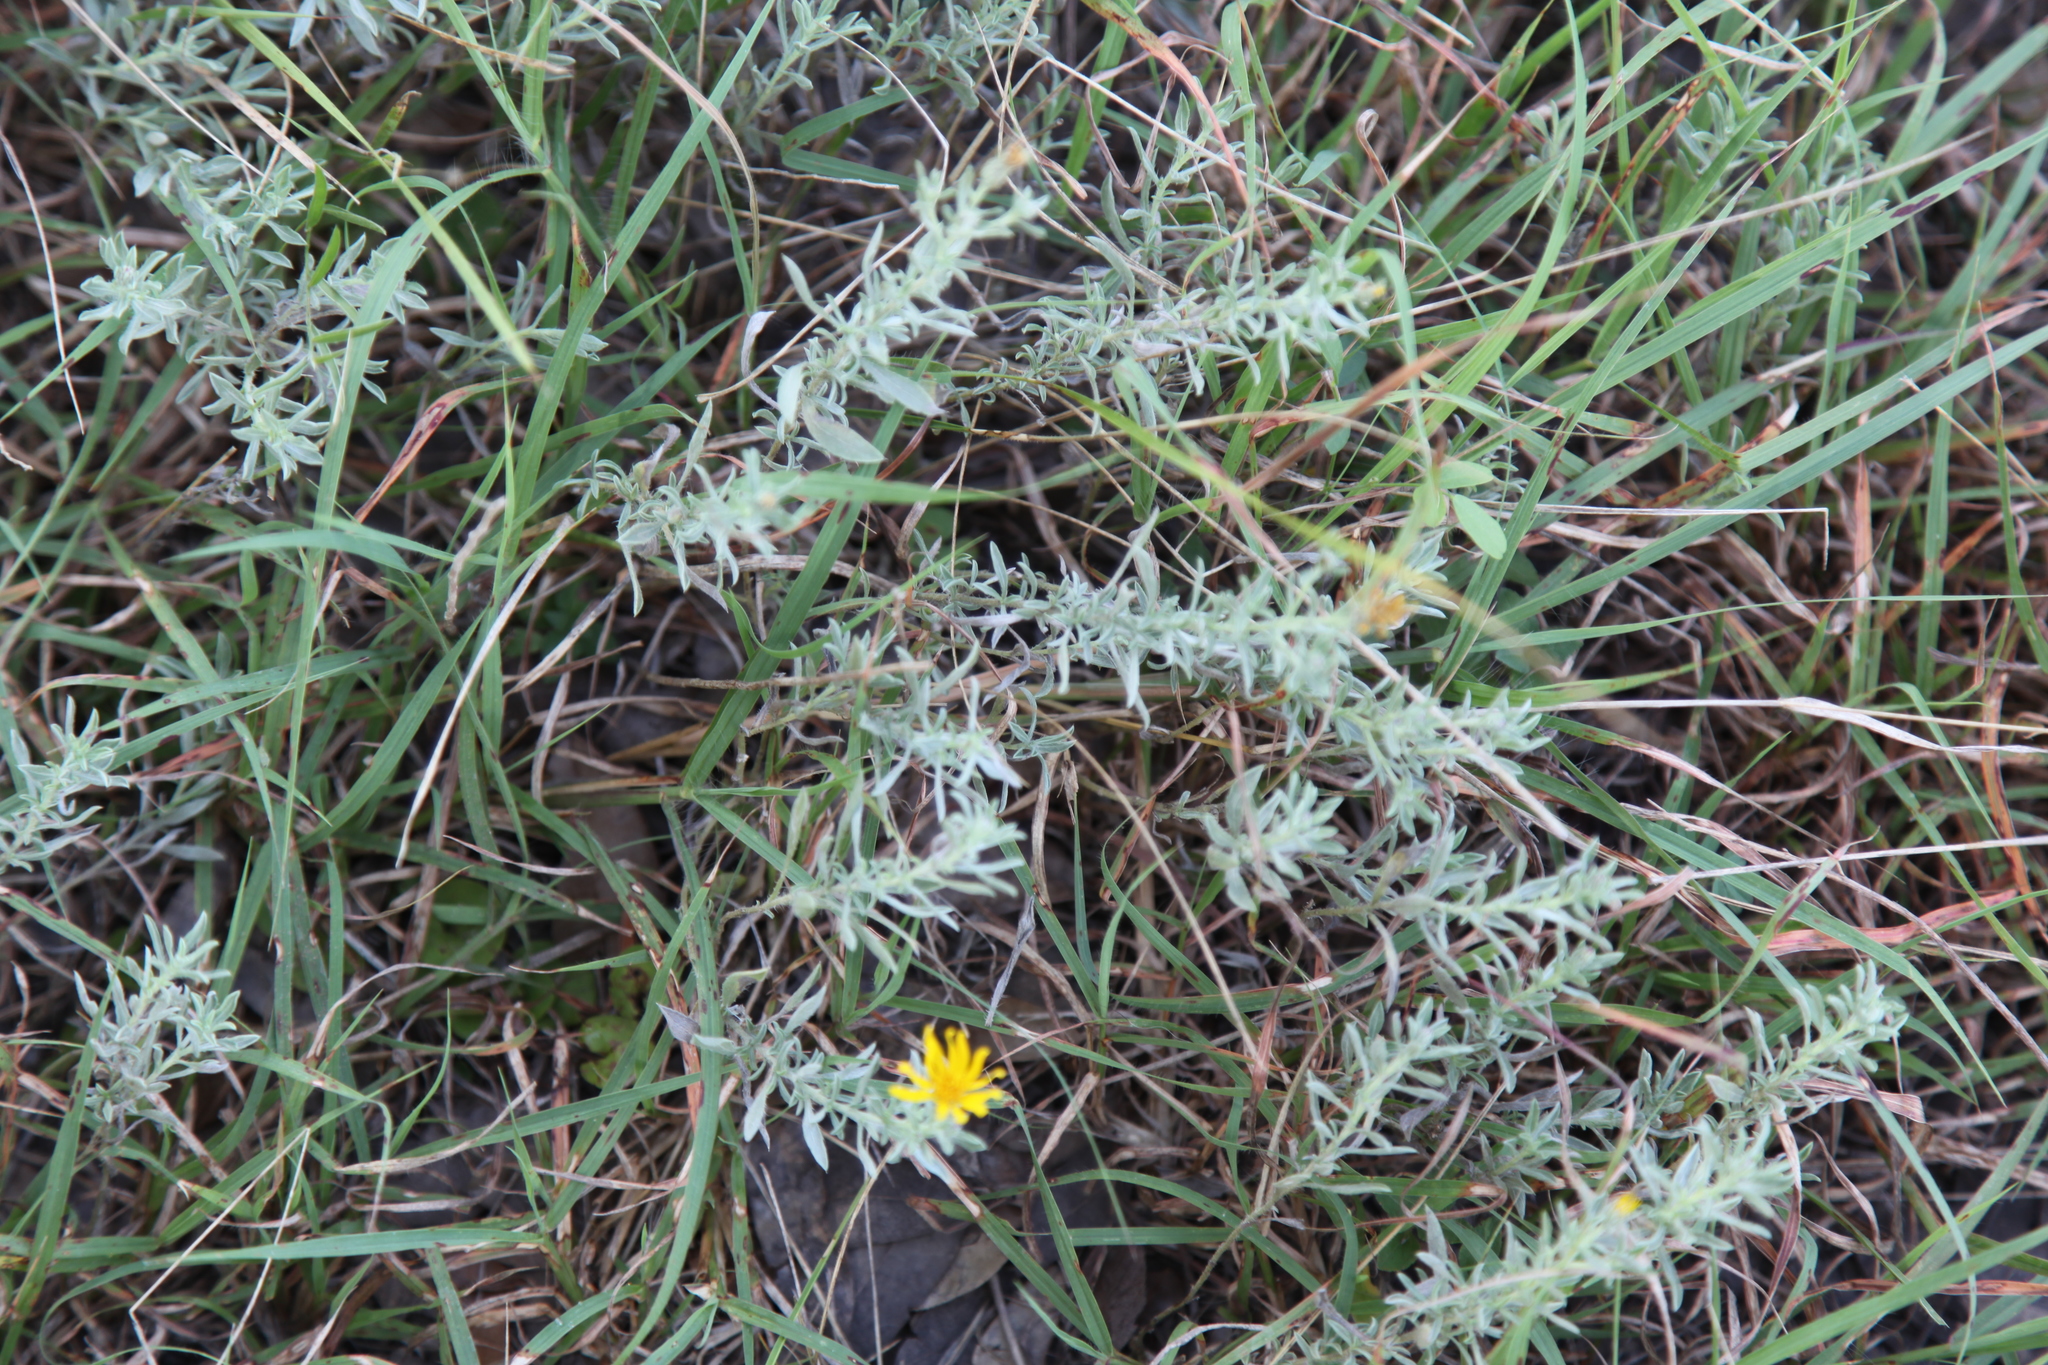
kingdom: Plantae
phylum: Tracheophyta
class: Magnoliopsida
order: Asterales
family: Asteraceae
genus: Heterotheca
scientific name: Heterotheca canescens
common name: Hoary golden-aster
